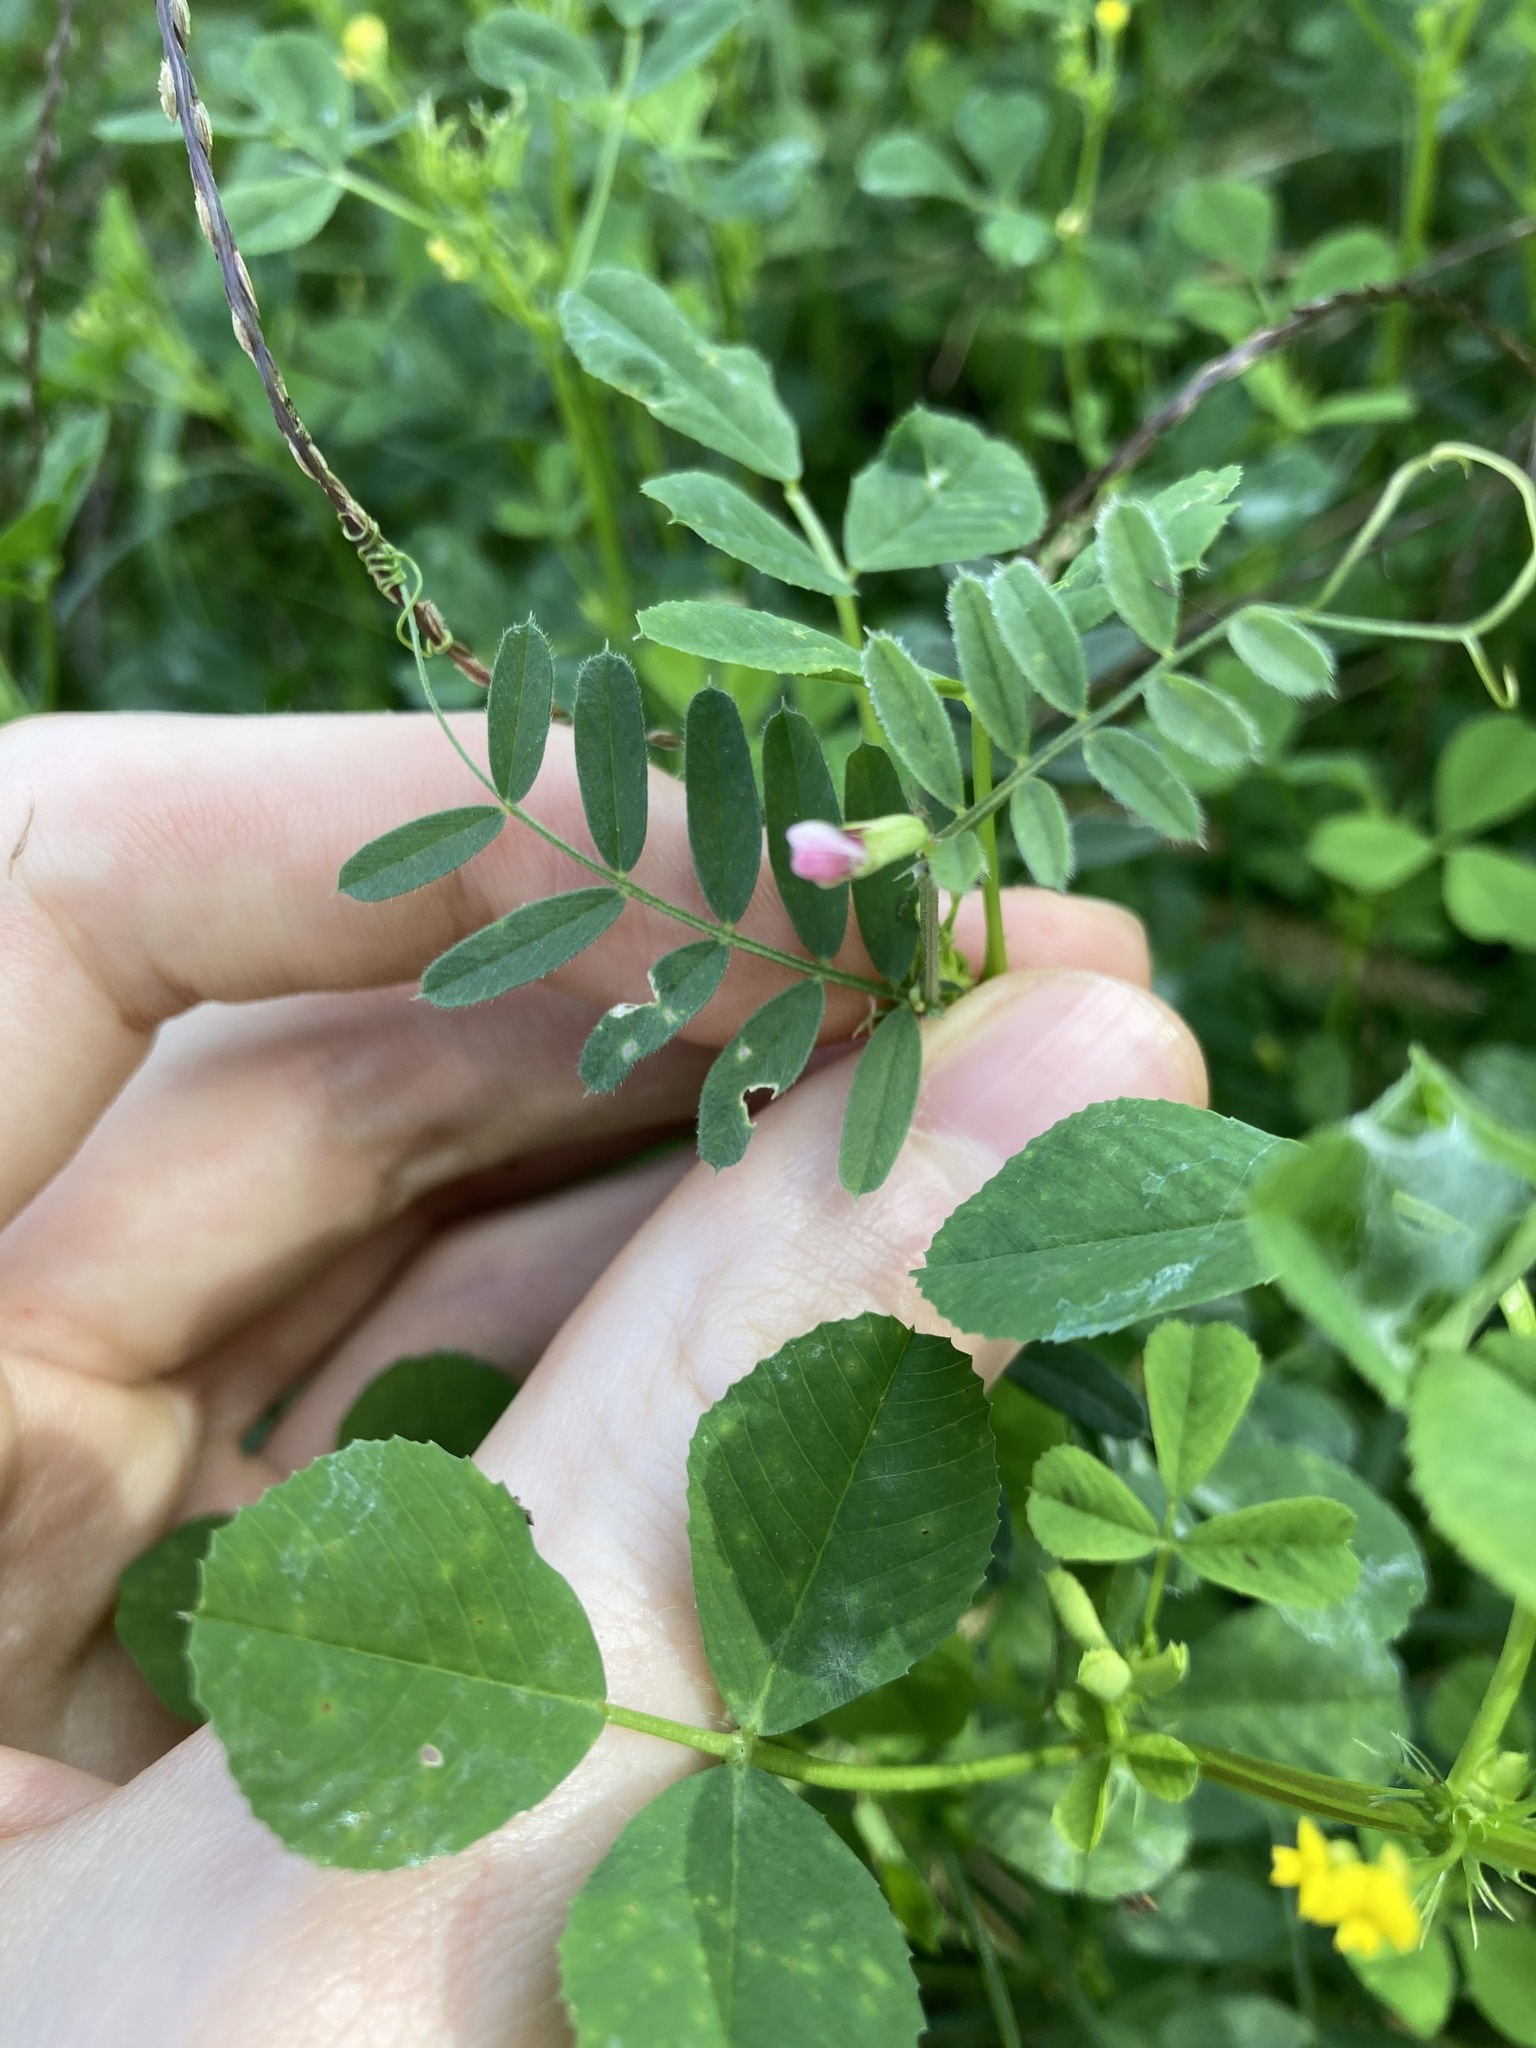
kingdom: Plantae
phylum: Tracheophyta
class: Magnoliopsida
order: Fabales
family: Fabaceae
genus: Vicia
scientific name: Vicia sativa
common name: Garden vetch
